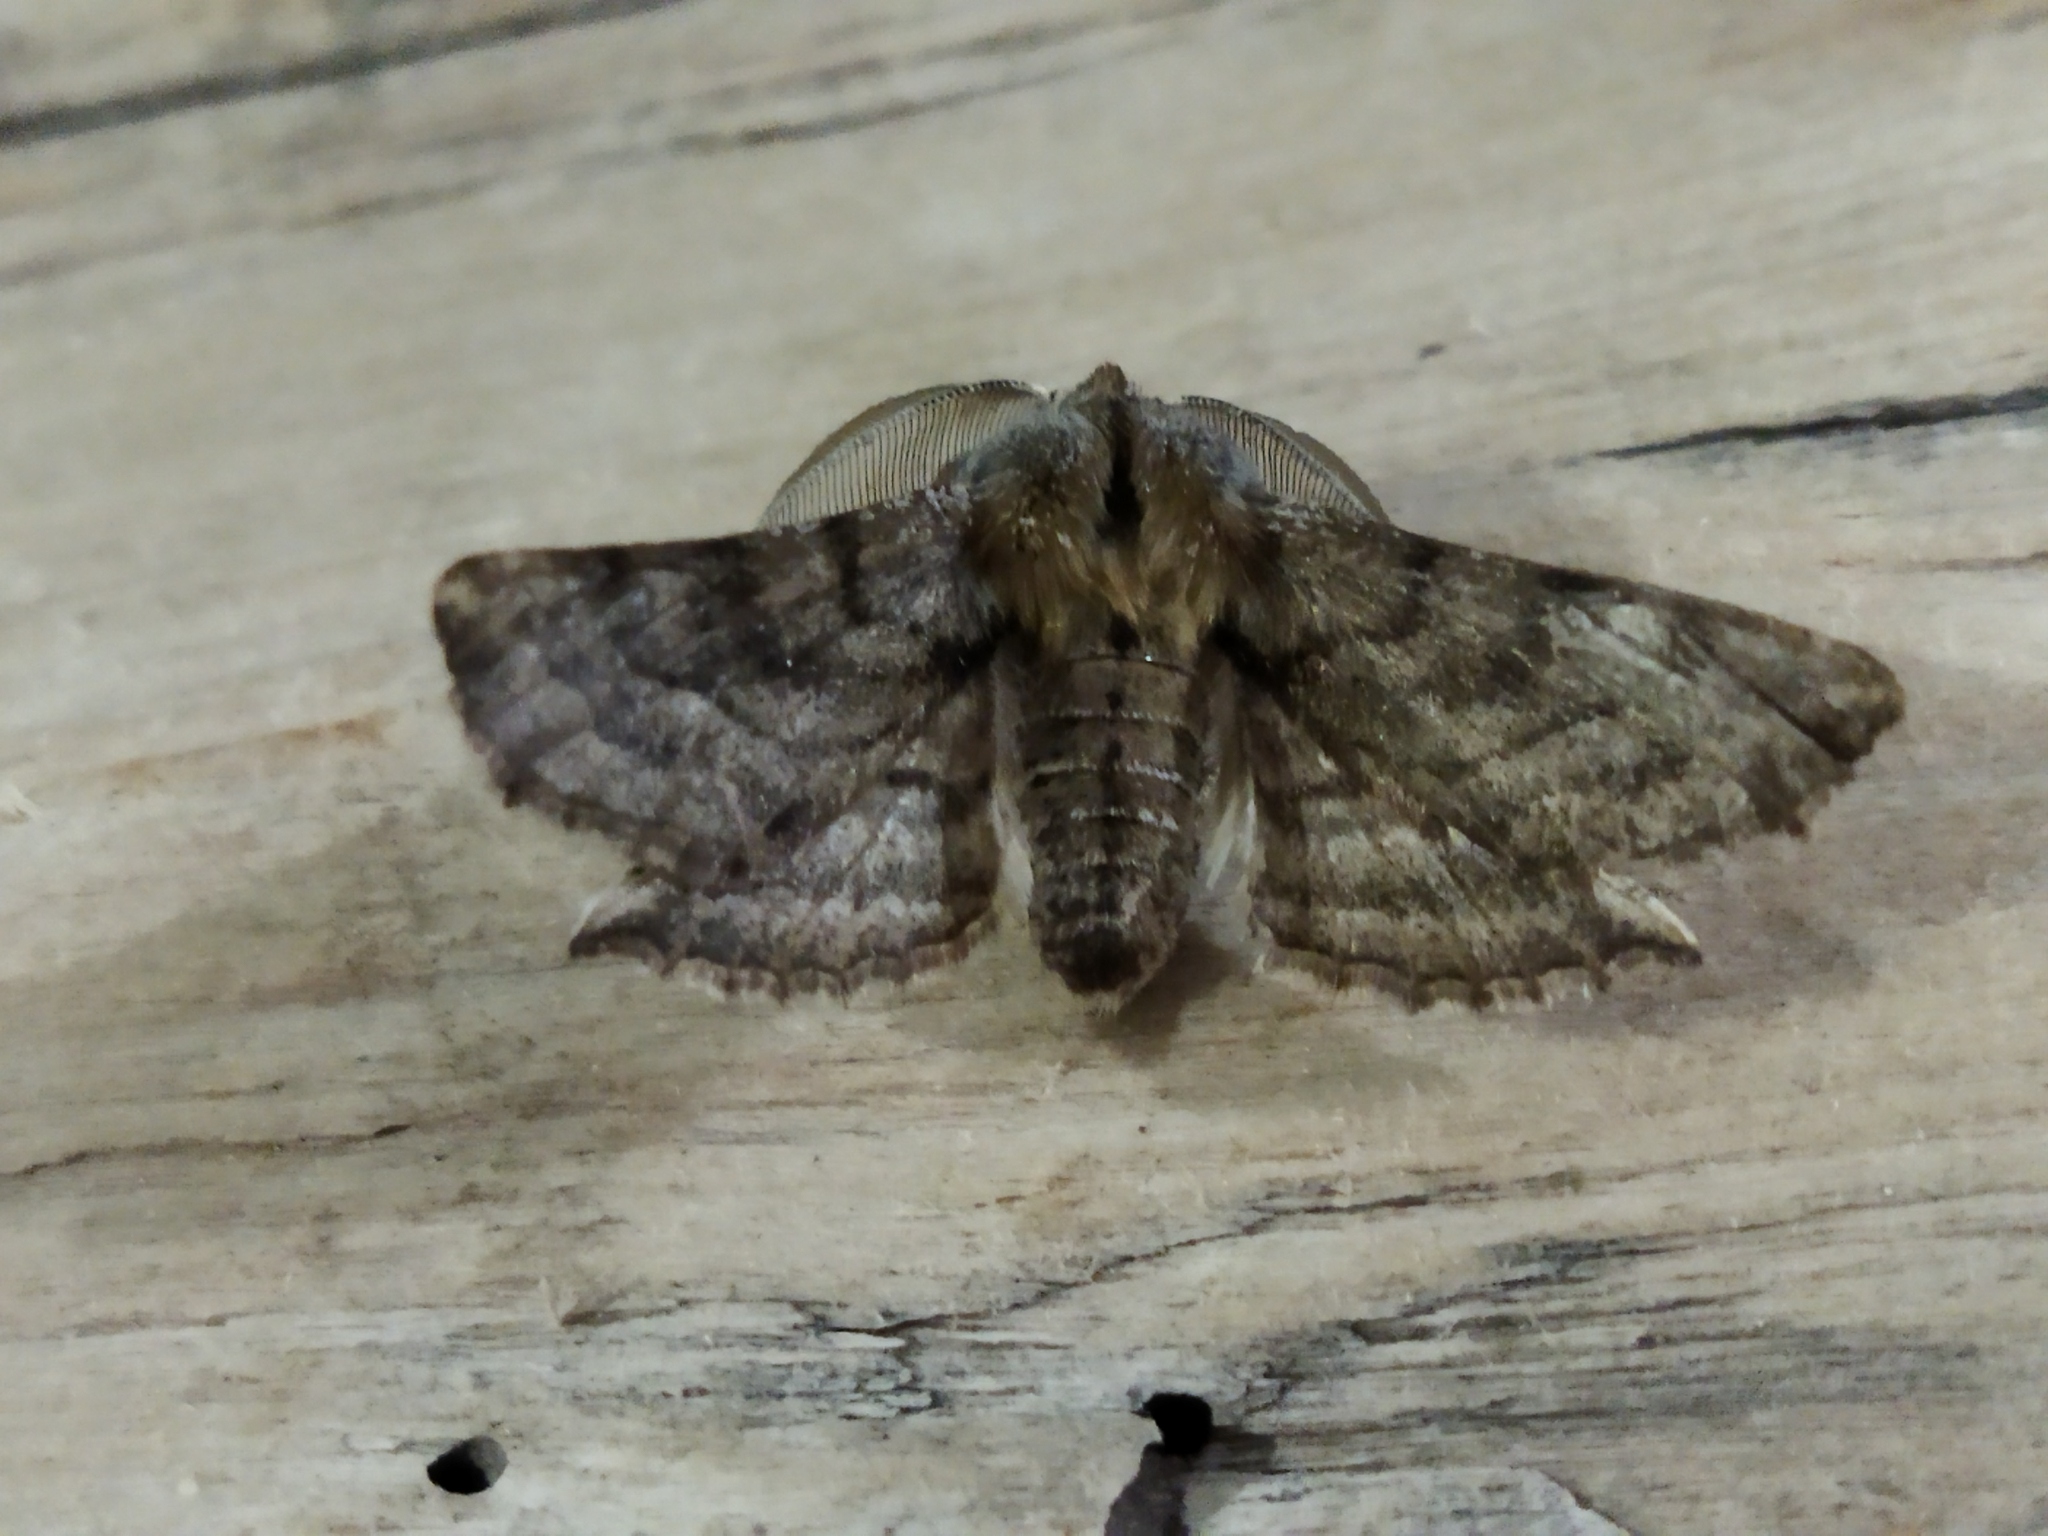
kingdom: Animalia
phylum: Arthropoda
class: Insecta
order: Lepidoptera
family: Geometridae
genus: Apochima
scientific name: Apochima flabellaria
